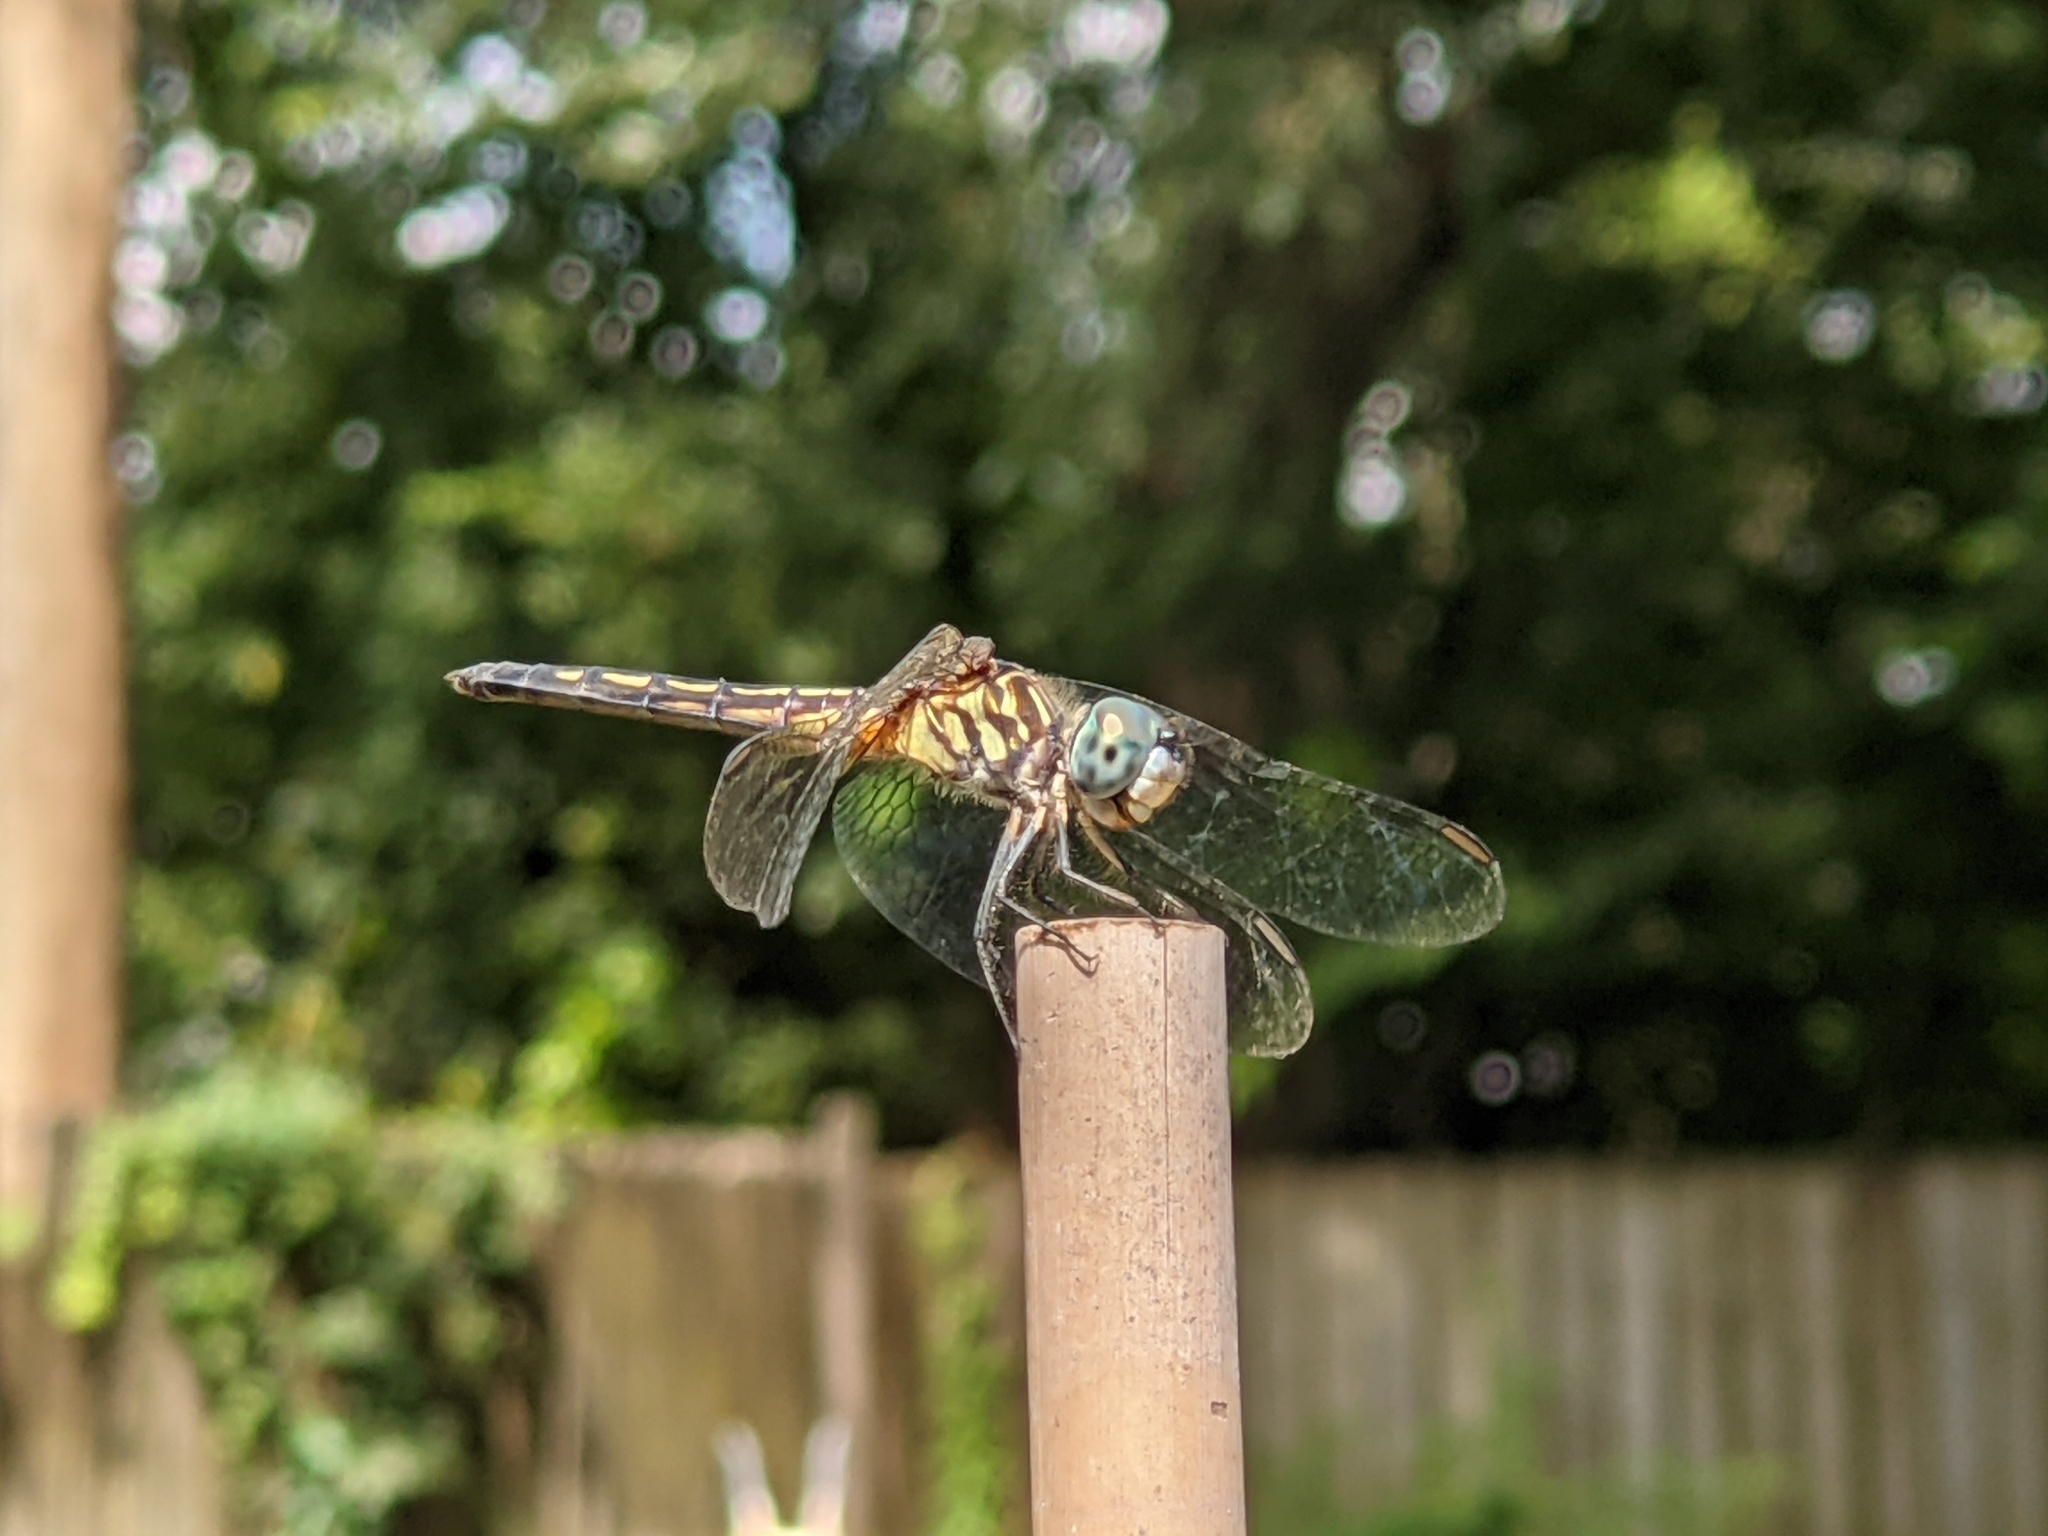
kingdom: Animalia
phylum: Arthropoda
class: Insecta
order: Odonata
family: Libellulidae
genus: Pachydiplax
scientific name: Pachydiplax longipennis
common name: Blue dasher
